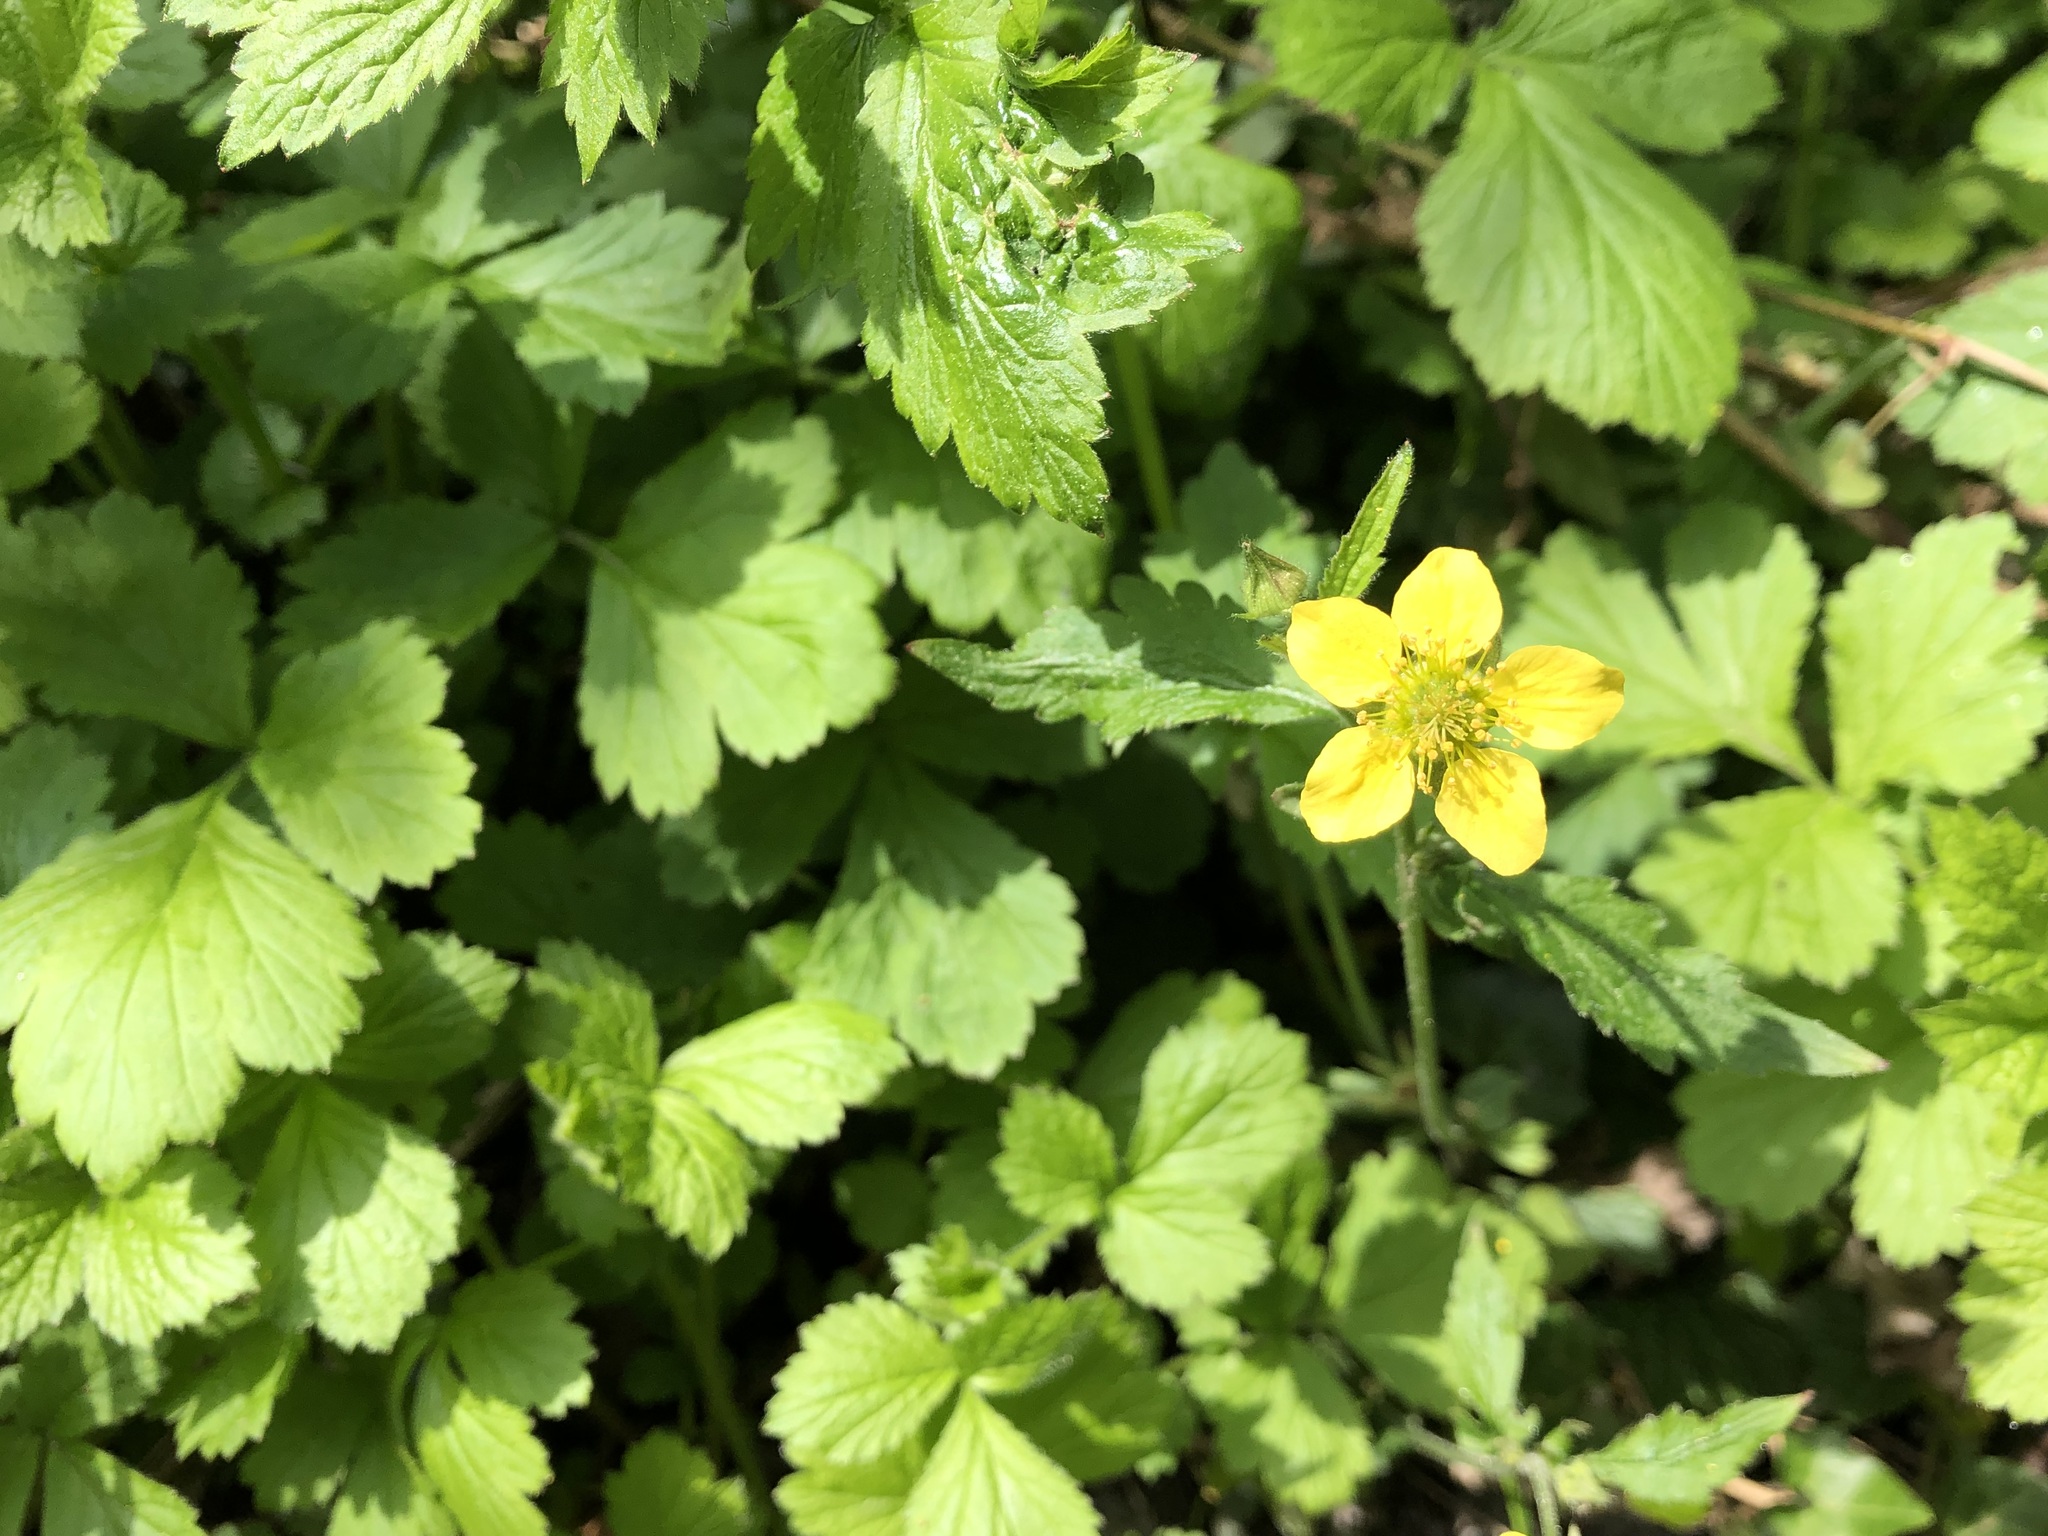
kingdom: Plantae
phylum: Tracheophyta
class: Magnoliopsida
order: Rosales
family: Rosaceae
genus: Geum
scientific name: Geum urbanum
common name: Wood avens
